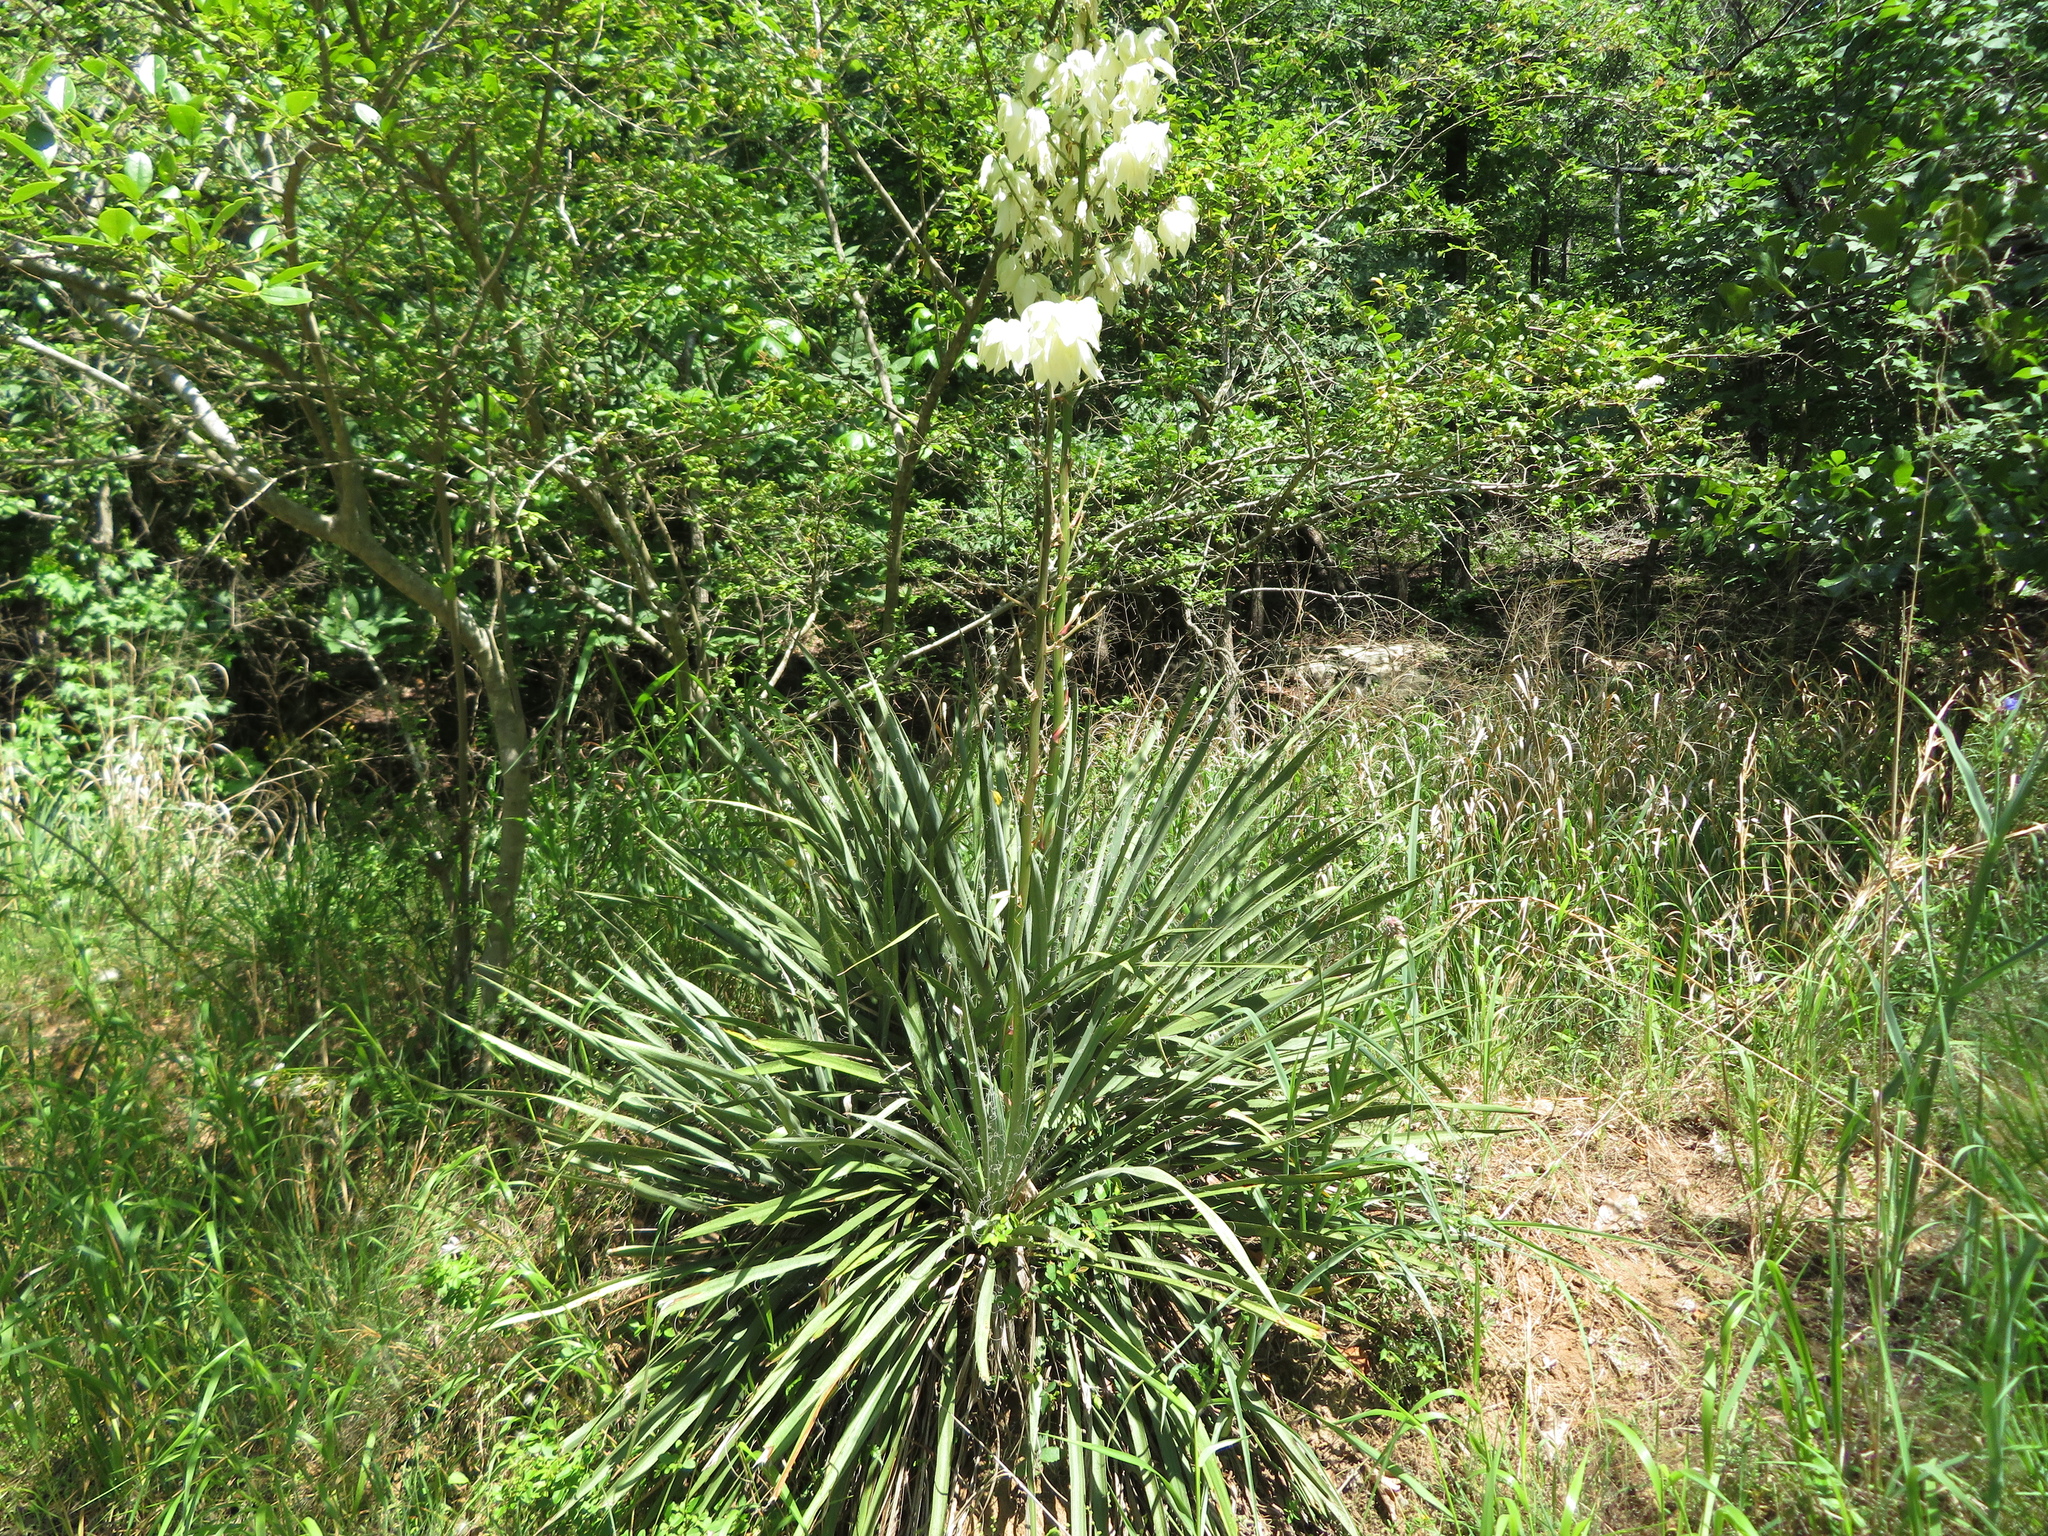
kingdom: Plantae
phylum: Tracheophyta
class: Liliopsida
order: Asparagales
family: Asparagaceae
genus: Yucca
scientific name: Yucca filamentosa
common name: Adam's-needle
